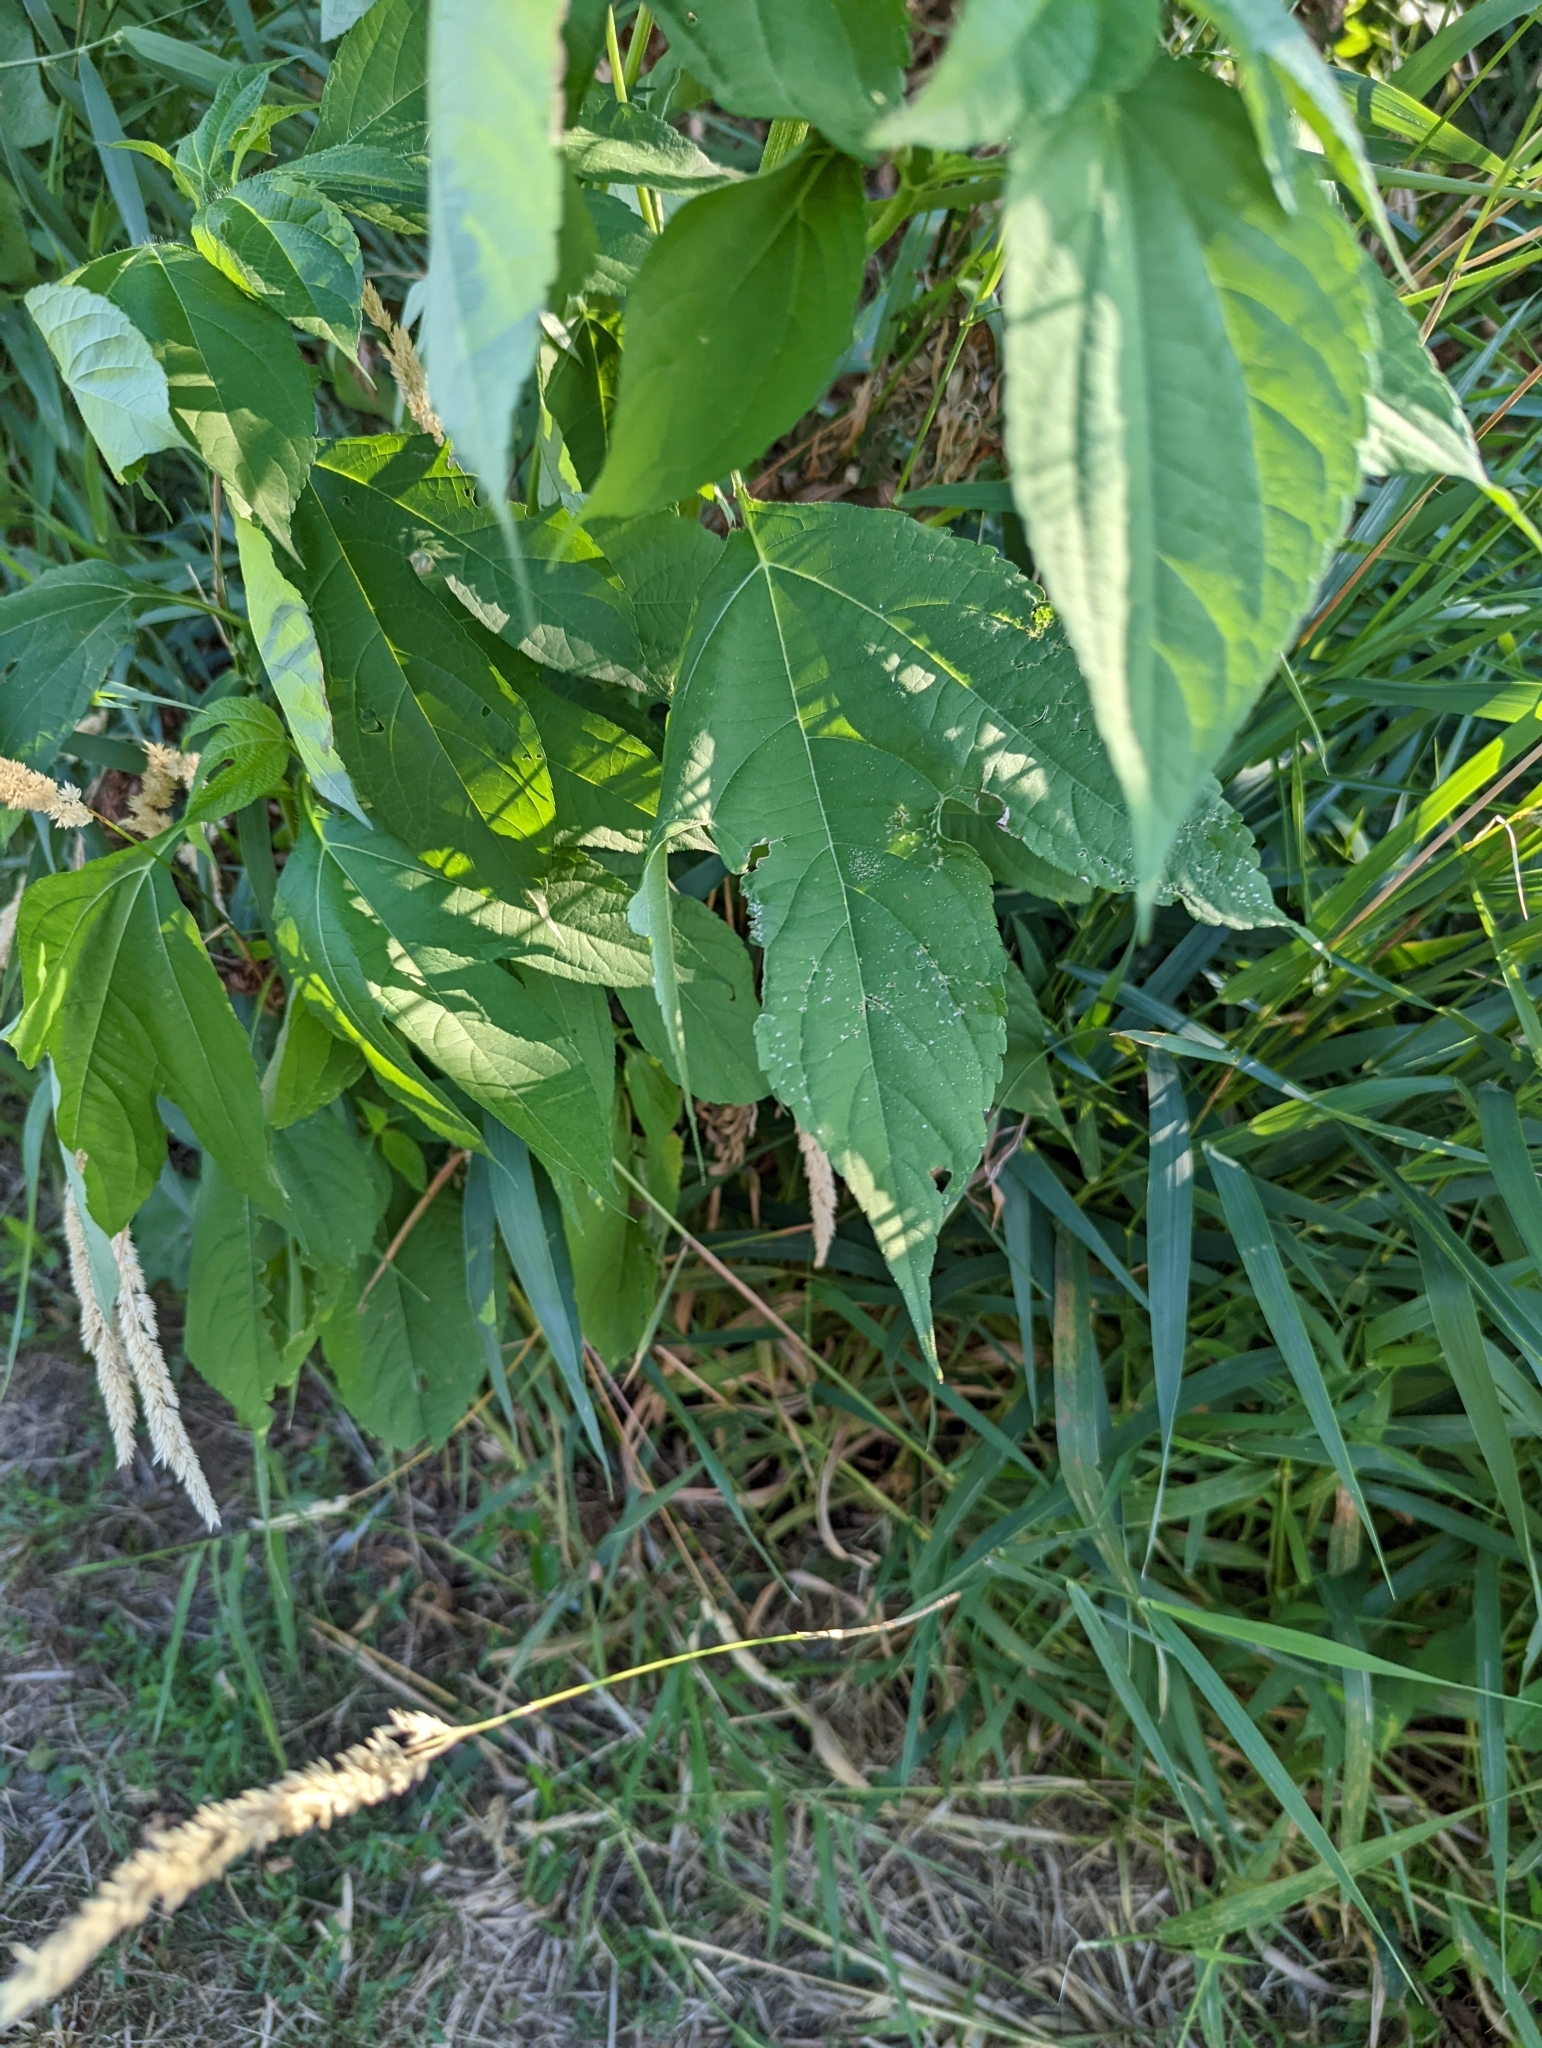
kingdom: Plantae
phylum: Tracheophyta
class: Magnoliopsida
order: Asterales
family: Asteraceae
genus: Ambrosia
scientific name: Ambrosia trifida
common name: Giant ragweed
